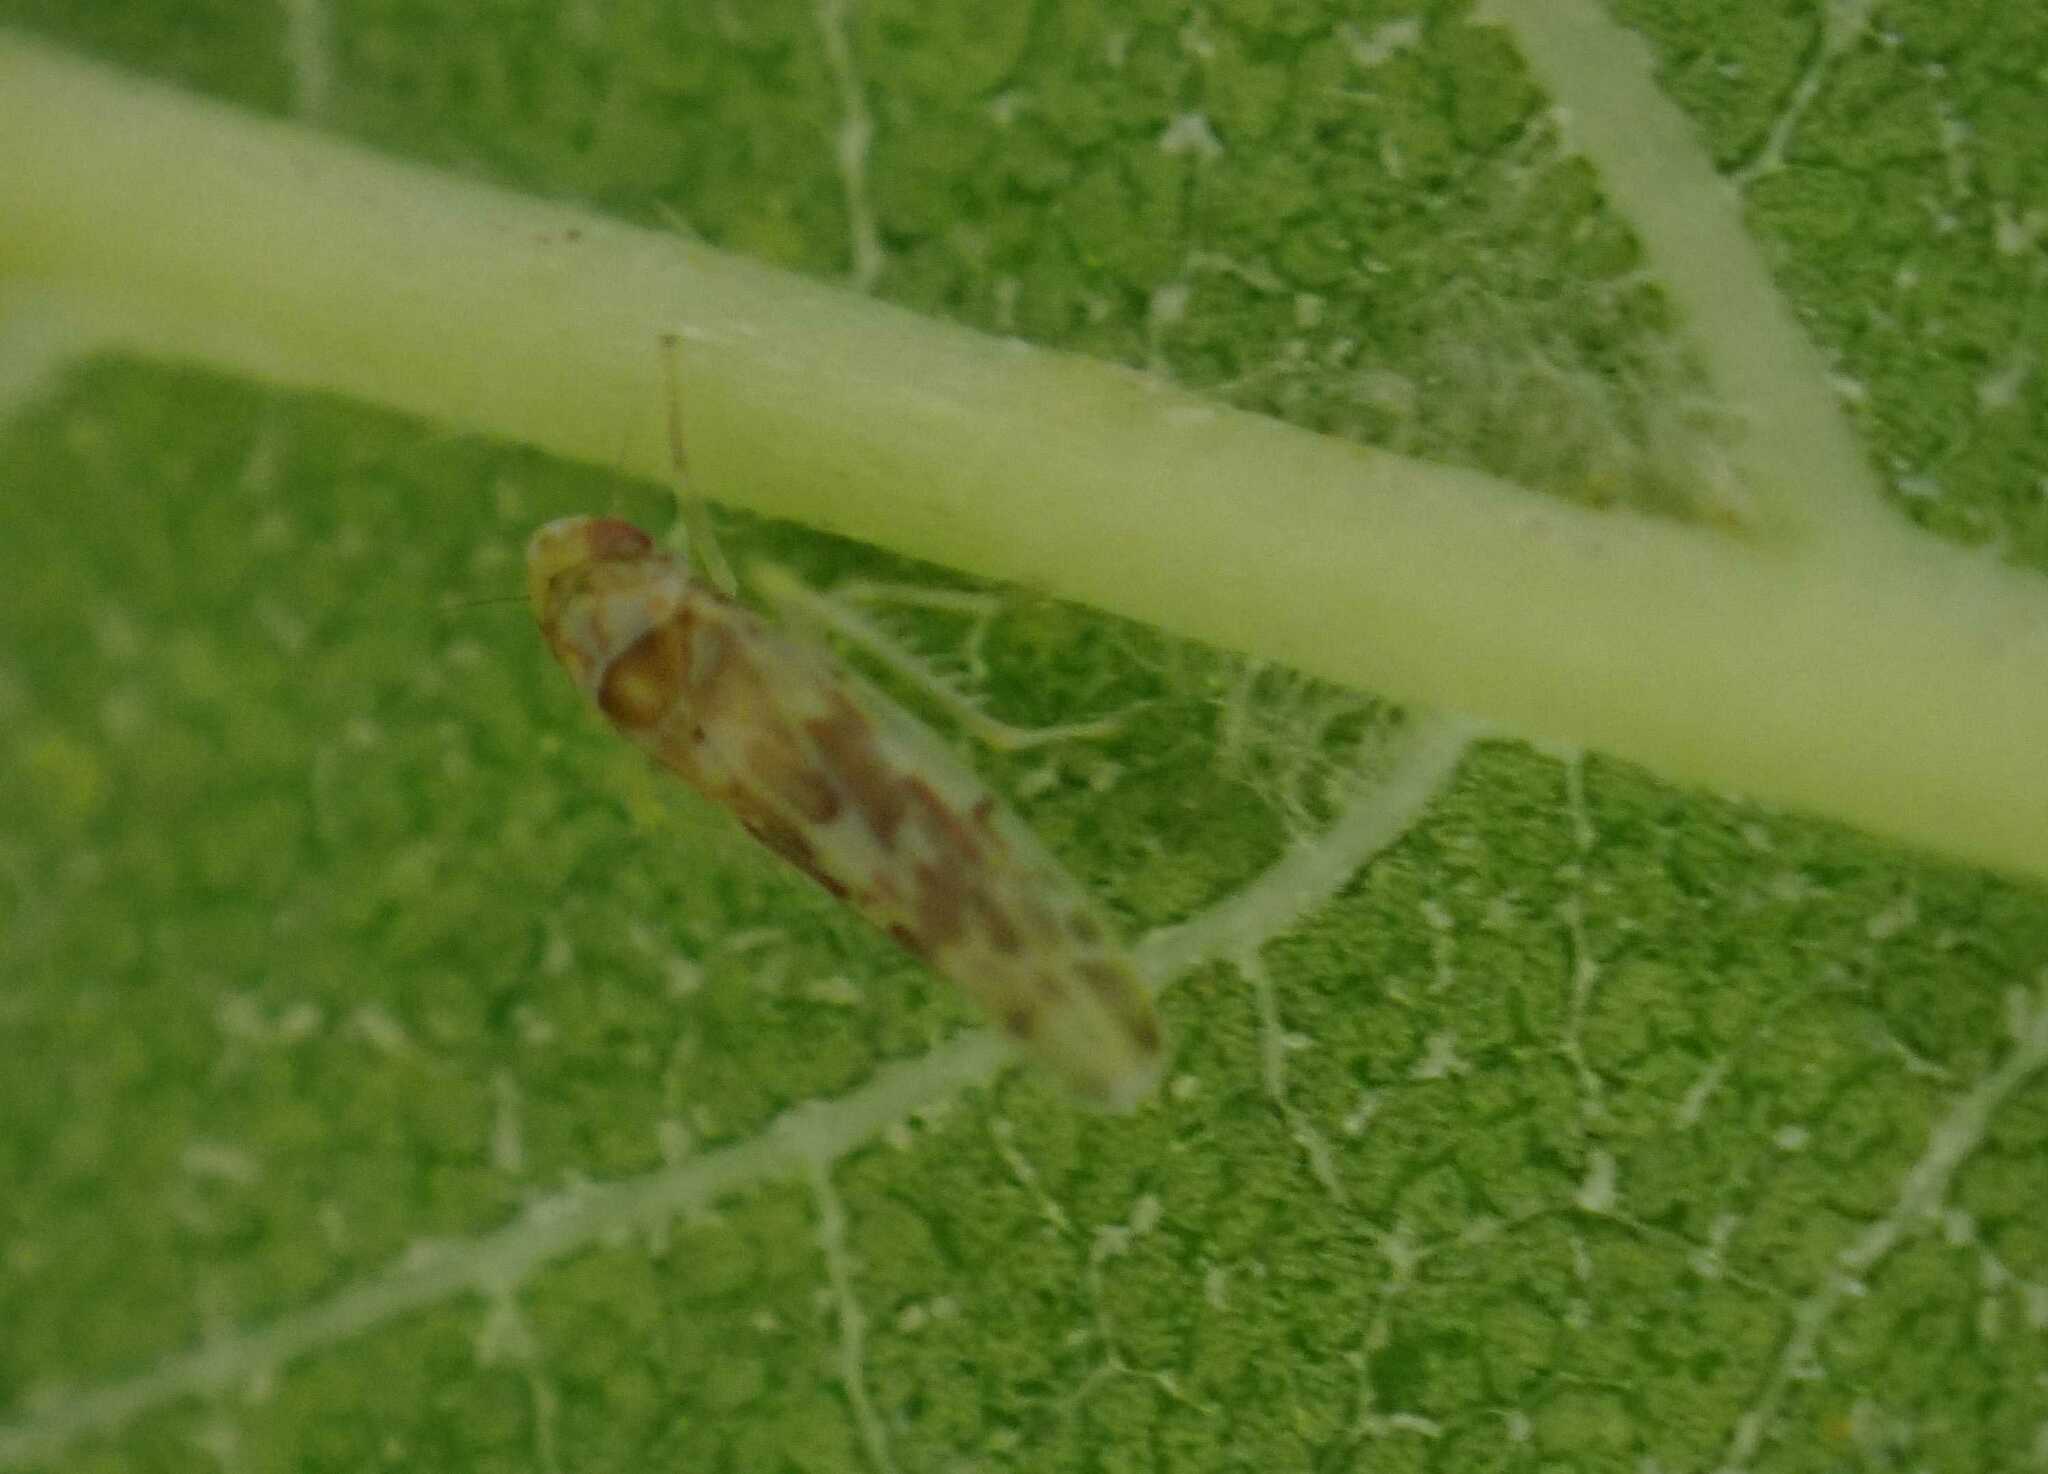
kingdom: Animalia
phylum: Arthropoda
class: Insecta
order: Hemiptera
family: Cicadellidae
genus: Tautoneura
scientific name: Tautoneura polymitusa
